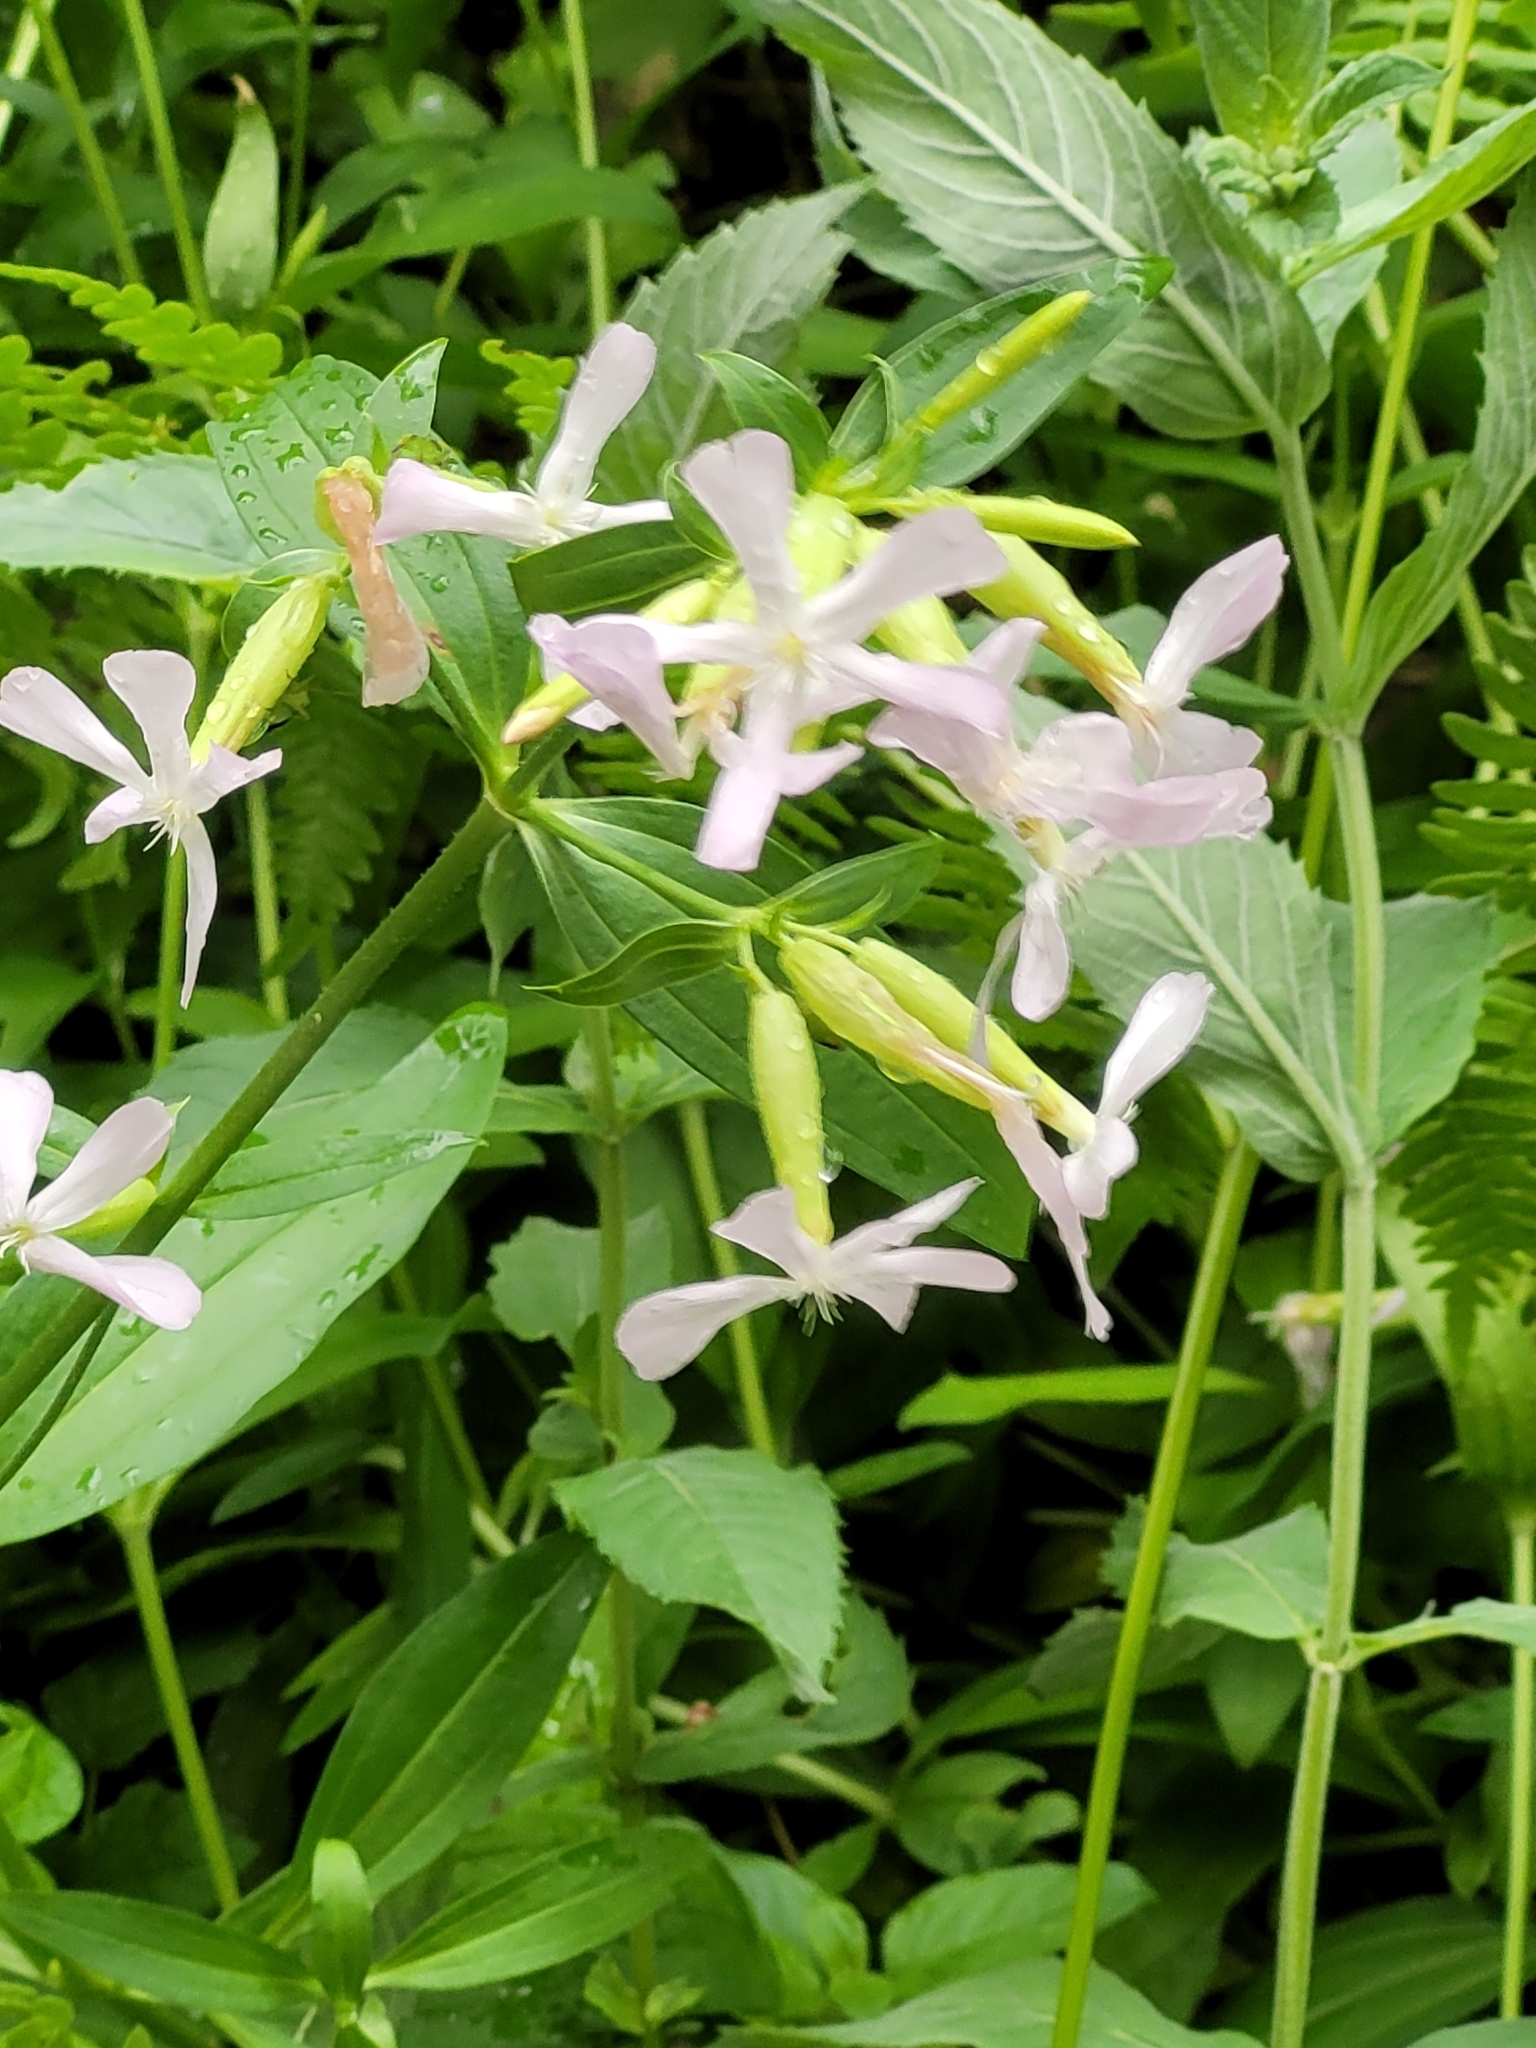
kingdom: Plantae
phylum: Tracheophyta
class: Magnoliopsida
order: Caryophyllales
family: Caryophyllaceae
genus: Saponaria
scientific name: Saponaria officinalis
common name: Soapwort
